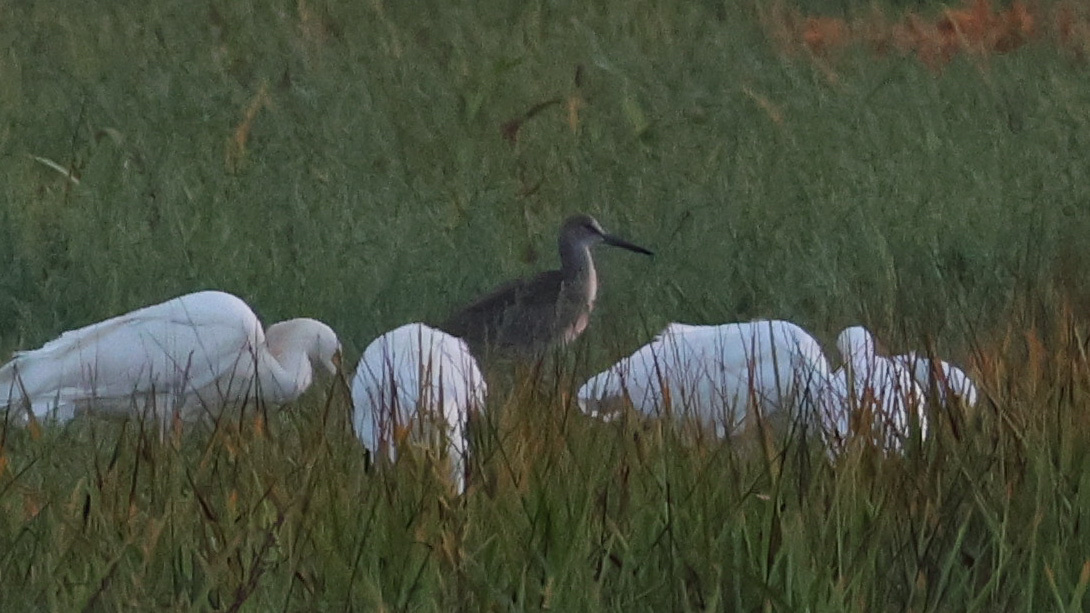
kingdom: Animalia
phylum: Chordata
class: Aves
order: Charadriiformes
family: Scolopacidae
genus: Tringa
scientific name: Tringa semipalmata
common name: Willet
